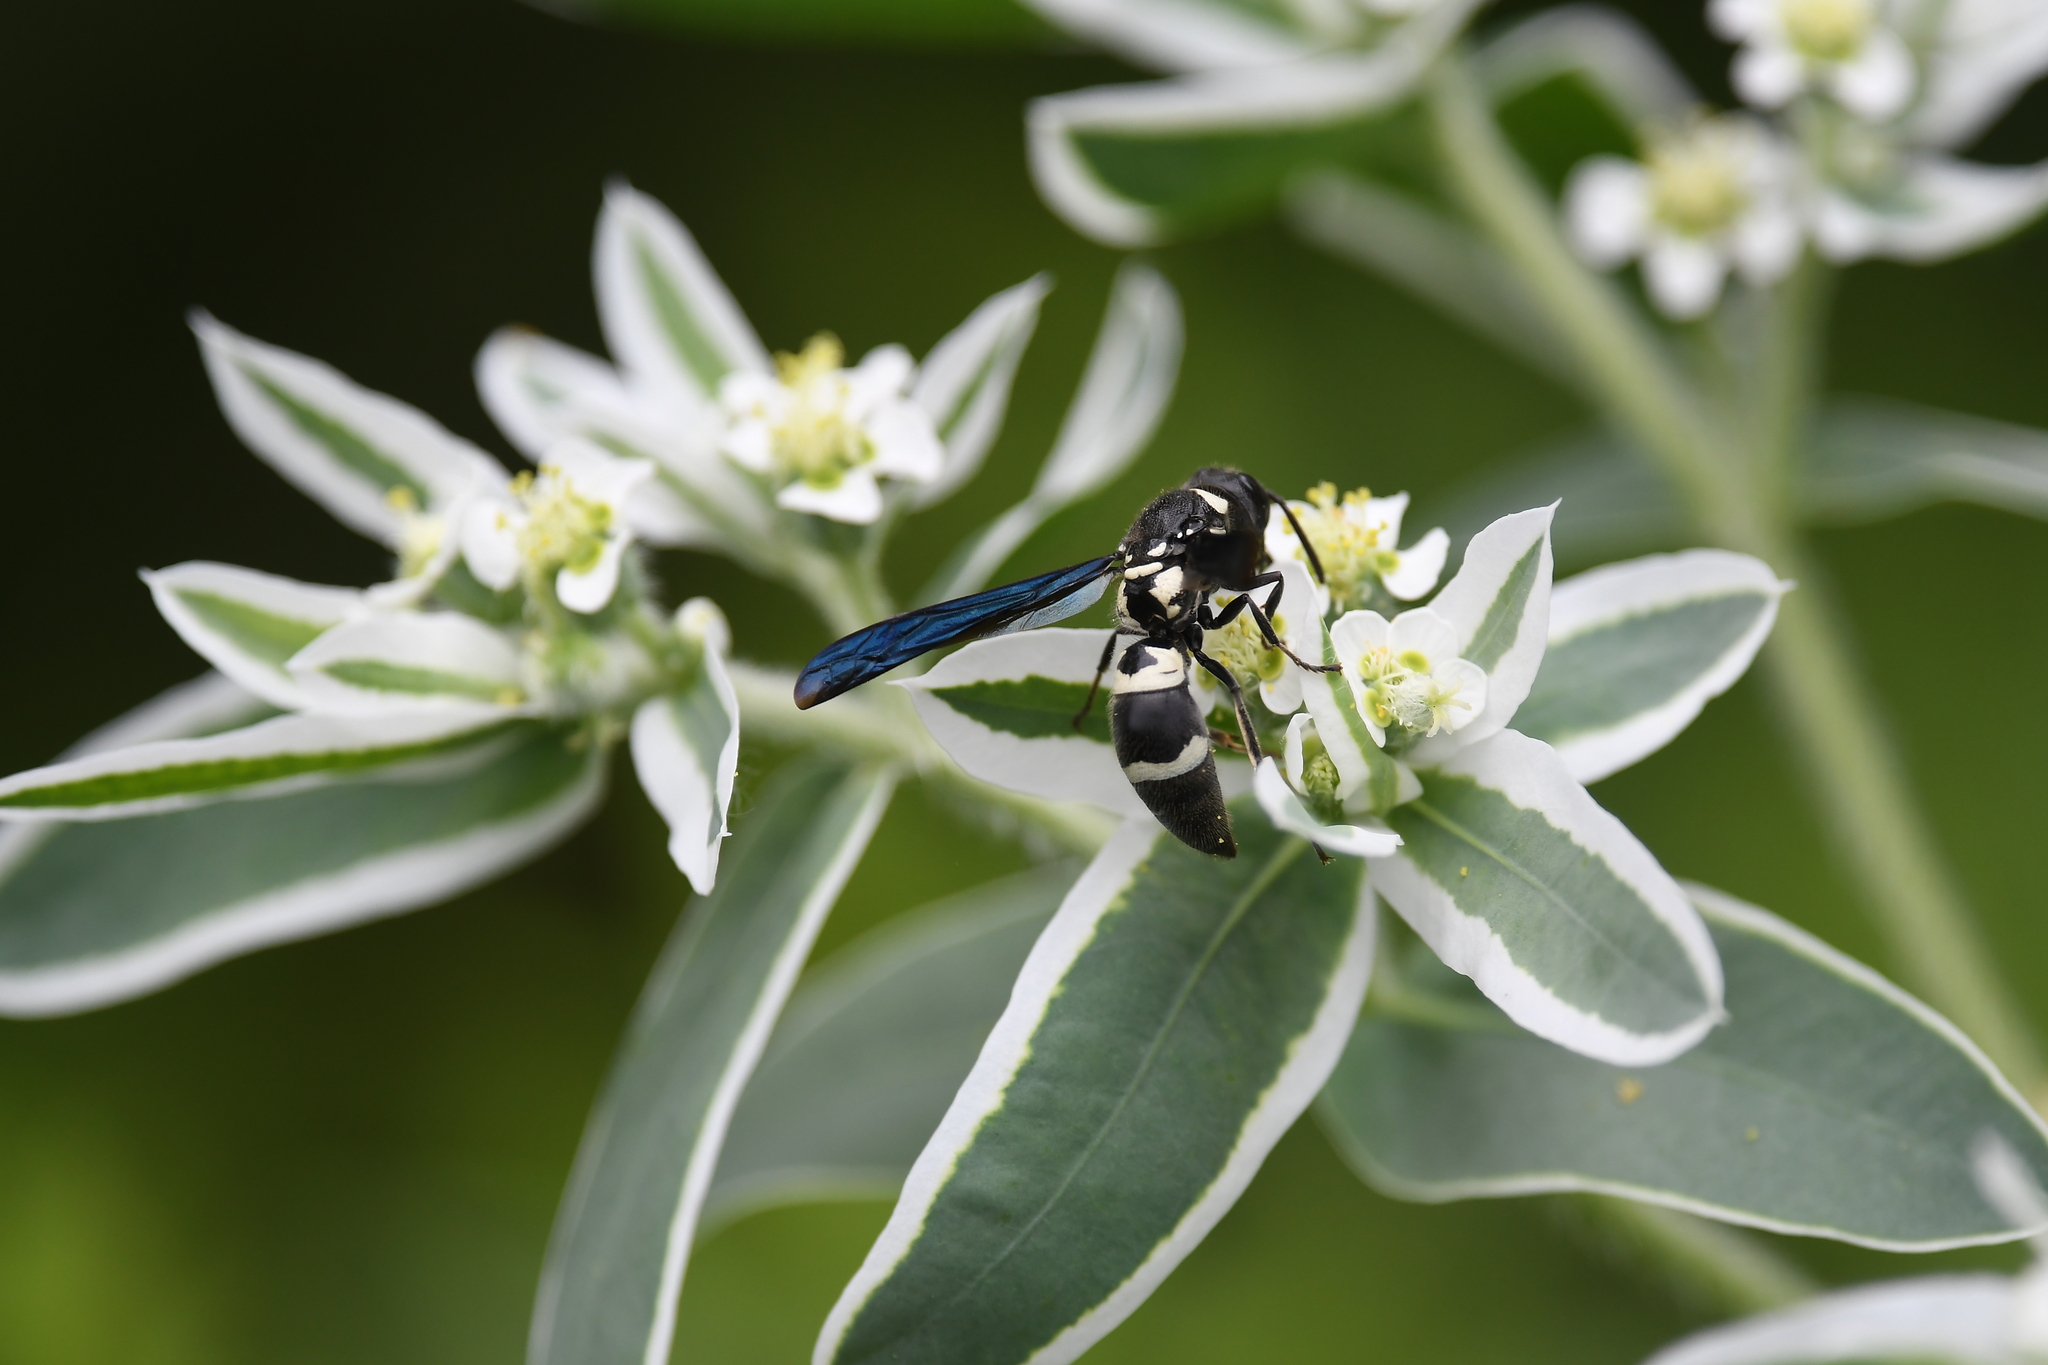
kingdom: Animalia
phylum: Arthropoda
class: Insecta
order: Hymenoptera
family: Eumenidae
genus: Pseudodynerus
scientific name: Pseudodynerus quadrisectus
